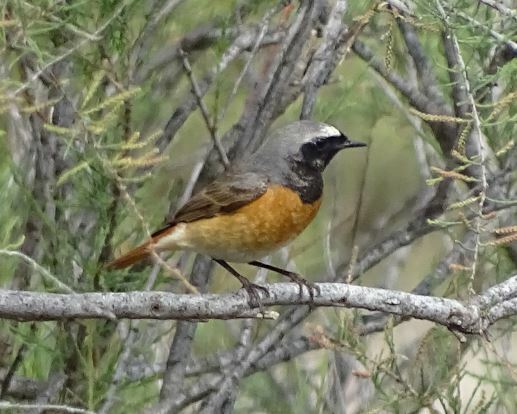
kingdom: Animalia
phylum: Chordata
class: Aves
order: Passeriformes
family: Muscicapidae
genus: Phoenicurus
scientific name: Phoenicurus phoenicurus
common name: Common redstart
